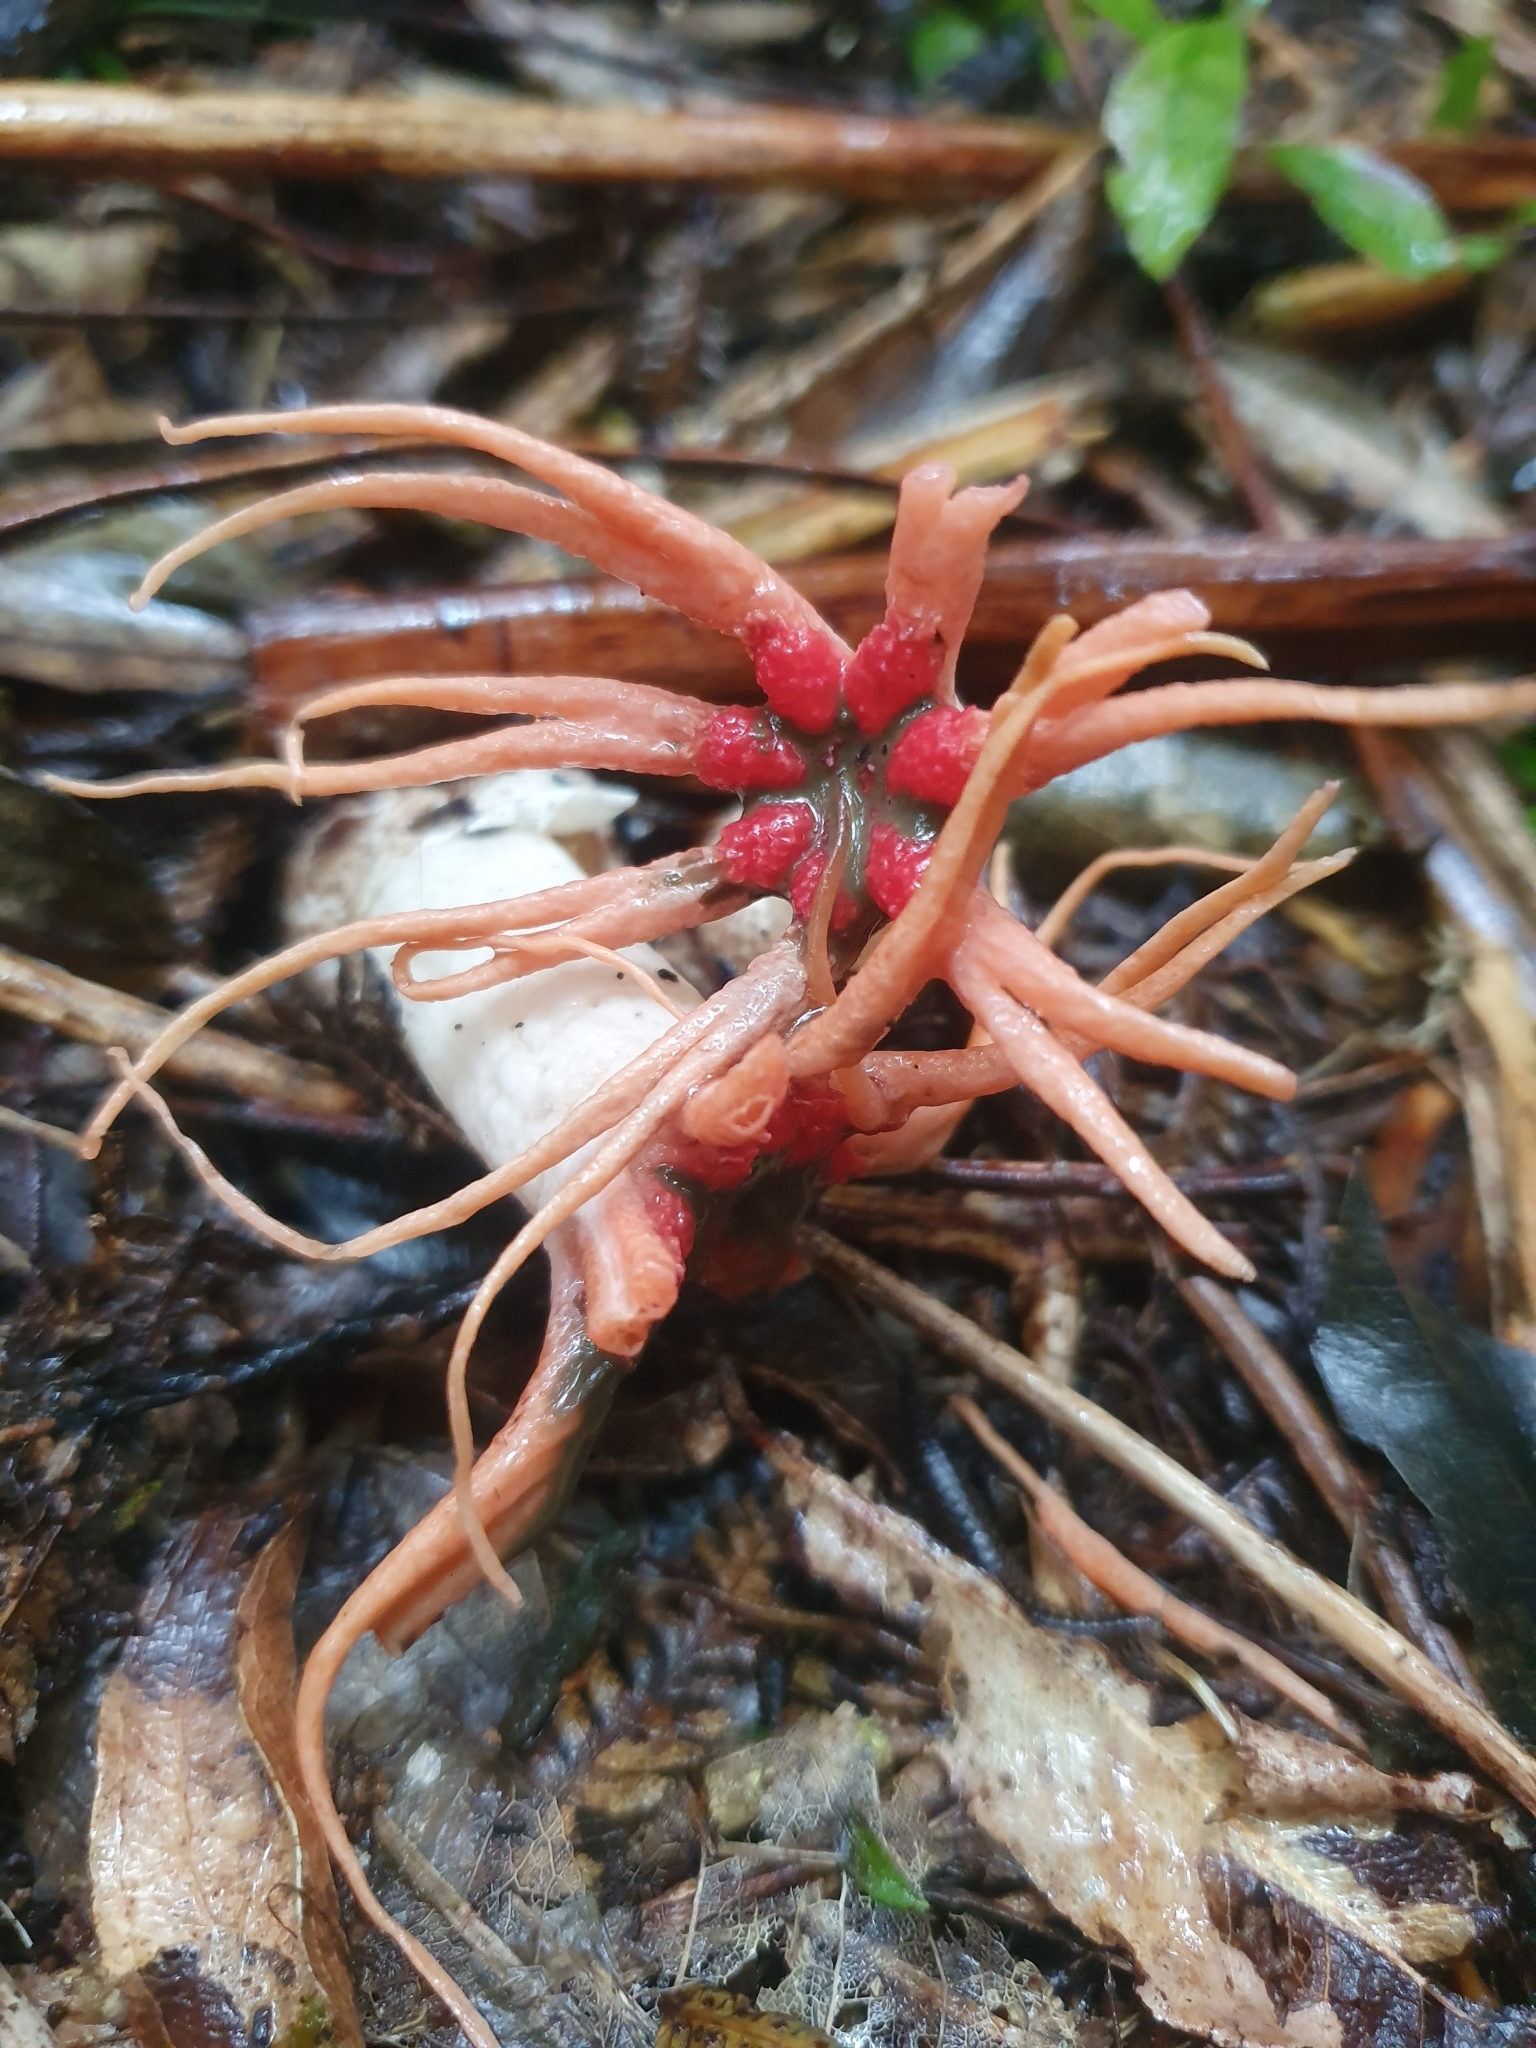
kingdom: Fungi
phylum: Basidiomycota
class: Agaricomycetes
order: Phallales
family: Phallaceae
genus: Aseroe
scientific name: Aseroe rubra
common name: Starfish fungus
